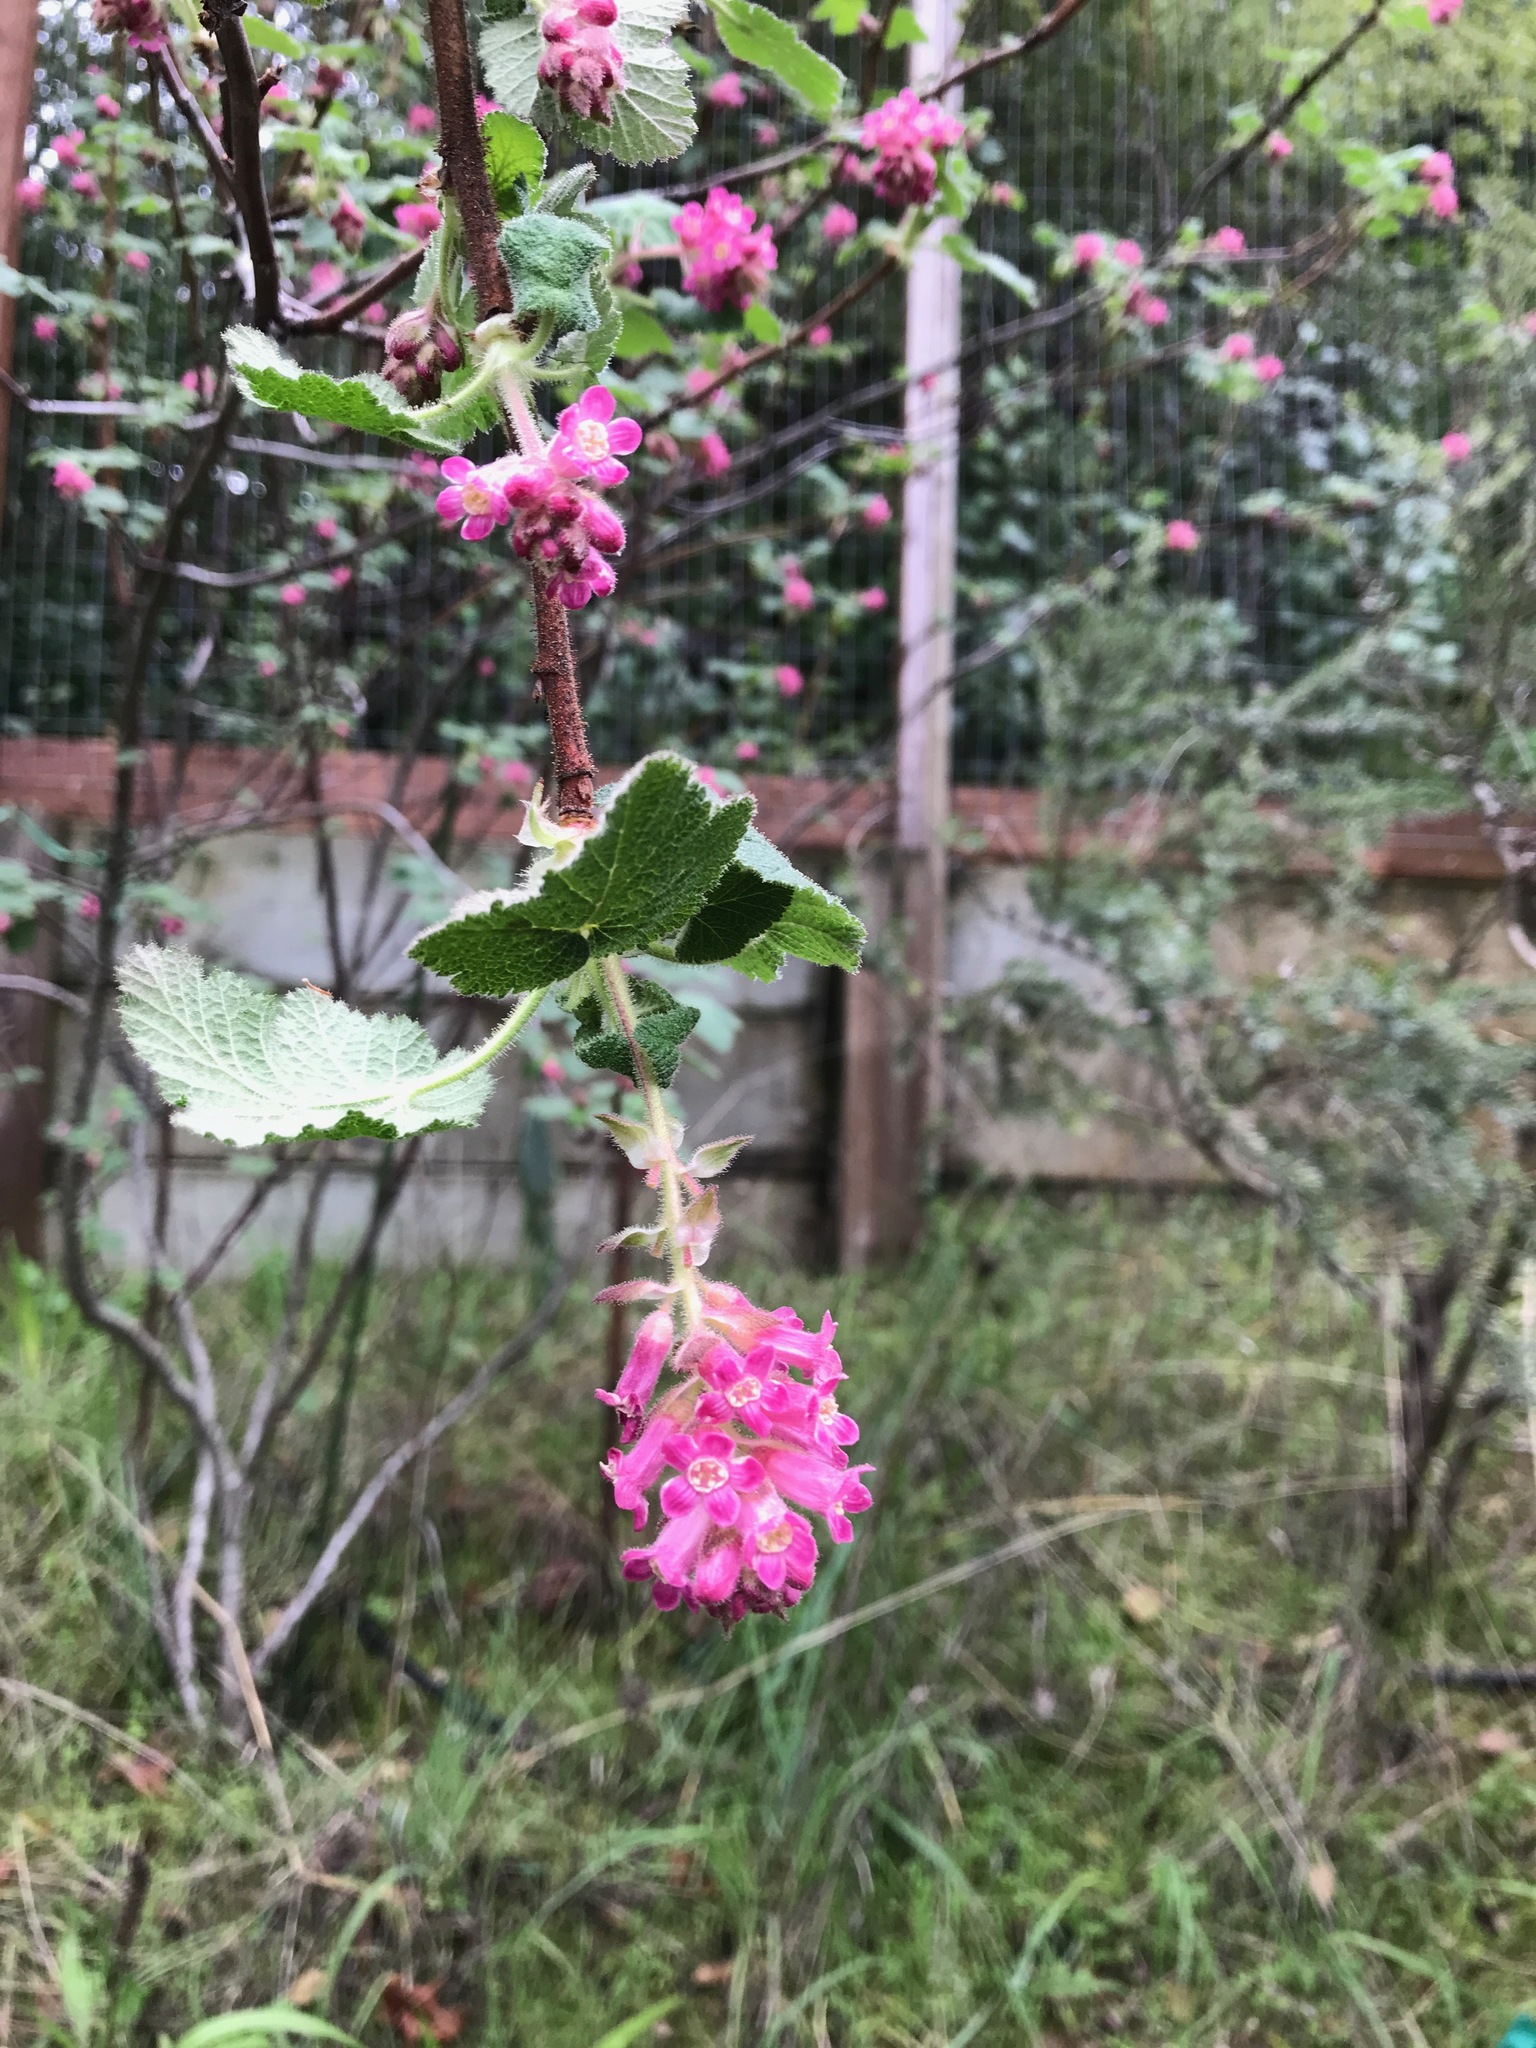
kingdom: Plantae
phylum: Tracheophyta
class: Magnoliopsida
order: Saxifragales
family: Grossulariaceae
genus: Ribes
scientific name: Ribes sanguineum
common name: Flowering currant
